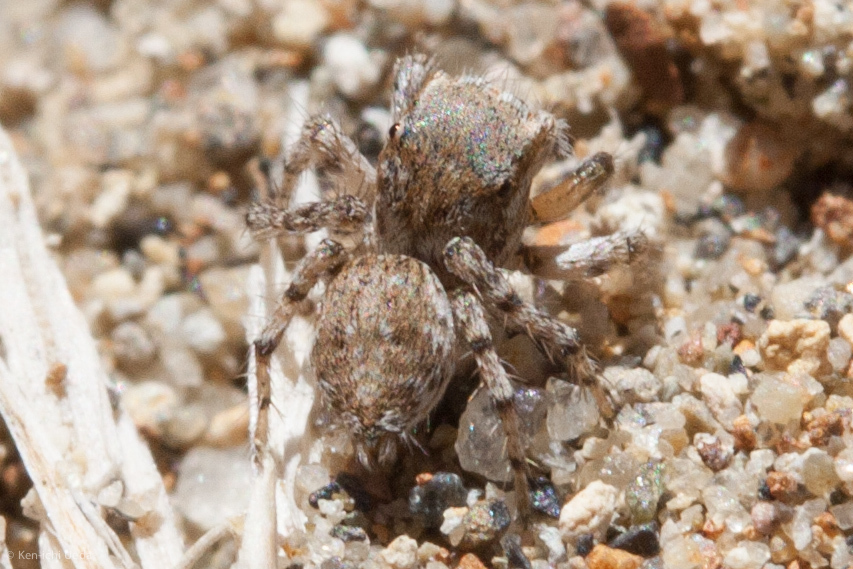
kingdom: Animalia
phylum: Arthropoda
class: Arachnida
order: Araneae
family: Salticidae
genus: Habronattus
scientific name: Habronattus ustulatus
